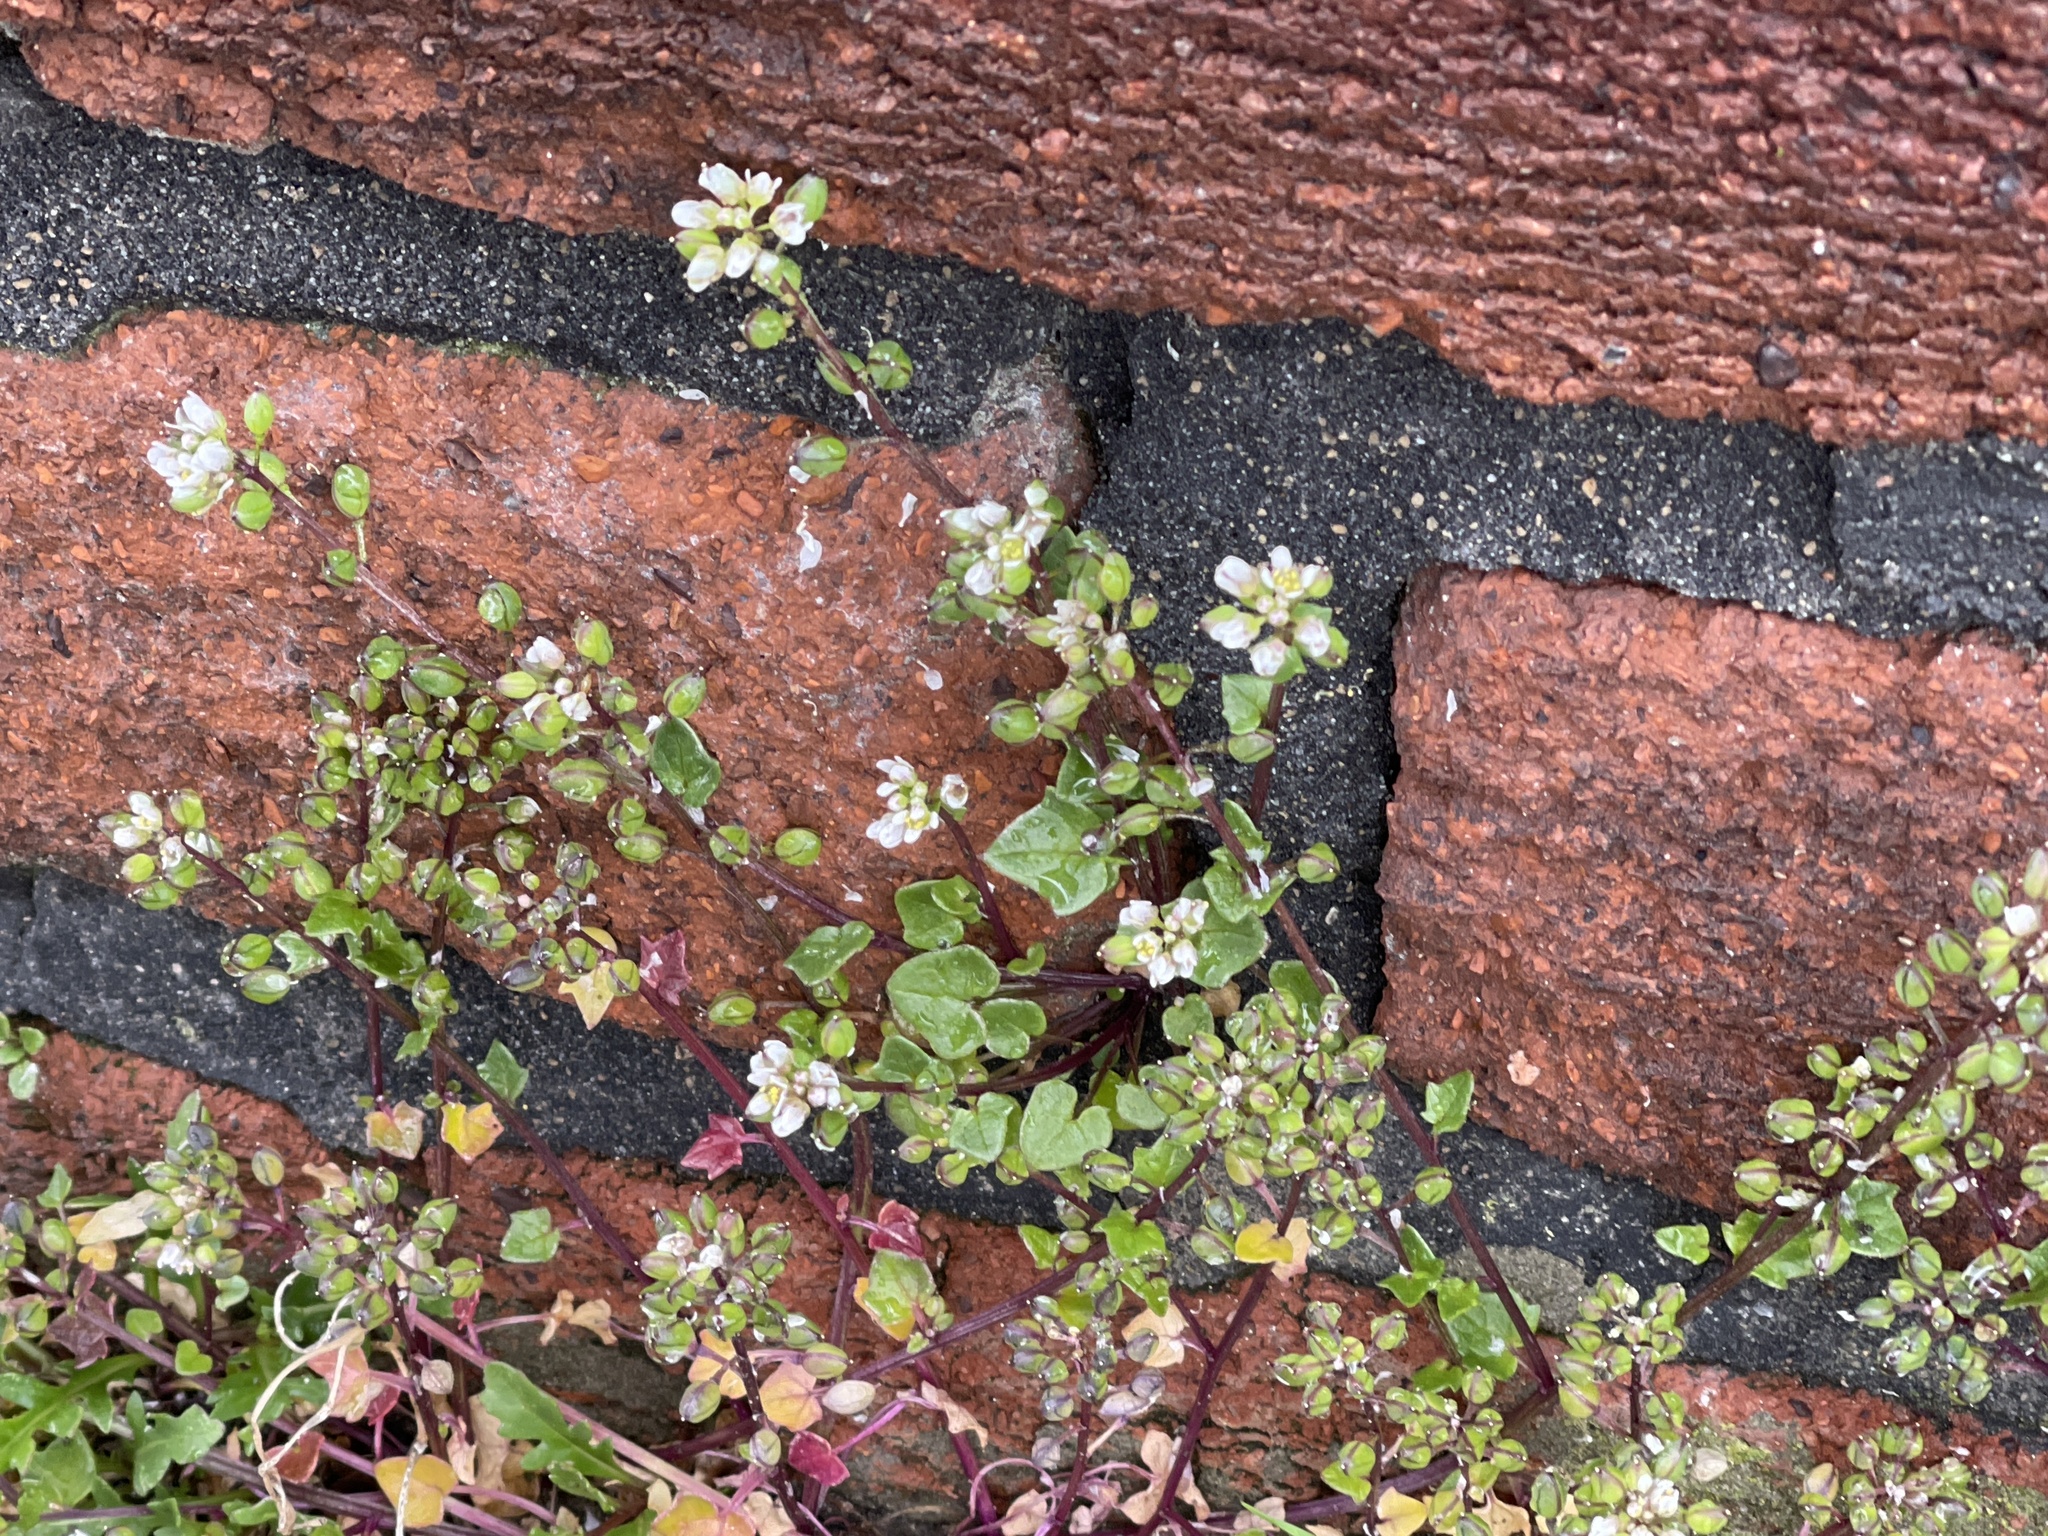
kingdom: Plantae
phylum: Tracheophyta
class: Magnoliopsida
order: Brassicales
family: Brassicaceae
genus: Cochlearia
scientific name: Cochlearia danica
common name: Early scurvygrass
